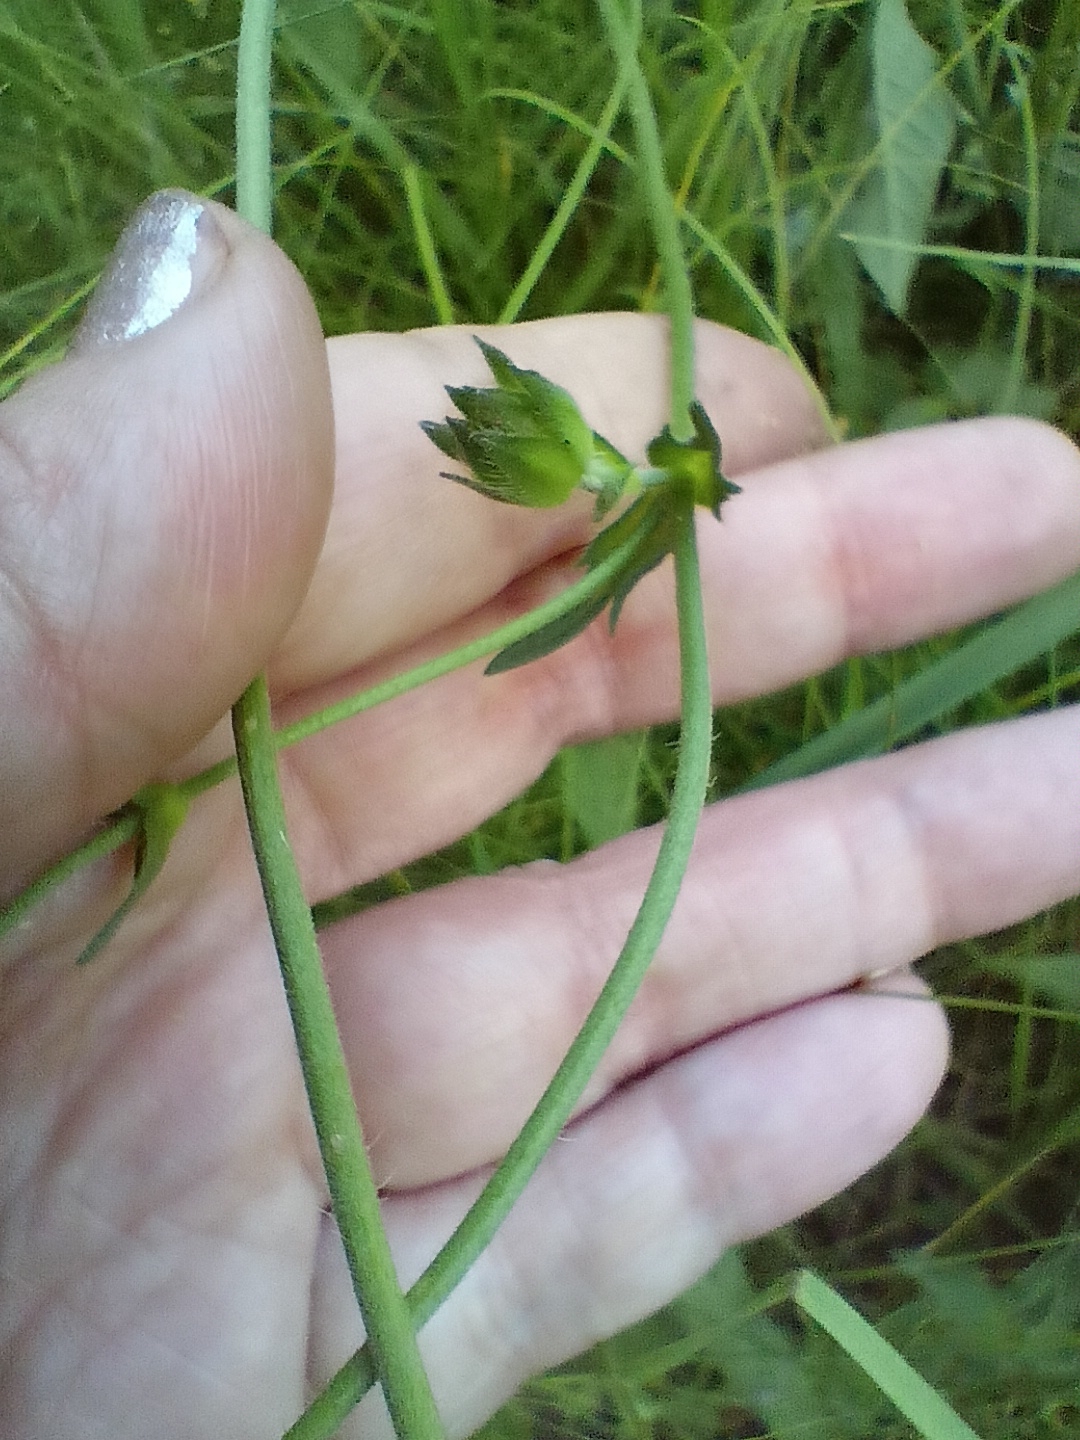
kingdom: Plantae
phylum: Tracheophyta
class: Magnoliopsida
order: Dipsacales
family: Caprifoliaceae
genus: Knautia
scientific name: Knautia arvensis
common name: Field scabiosa
